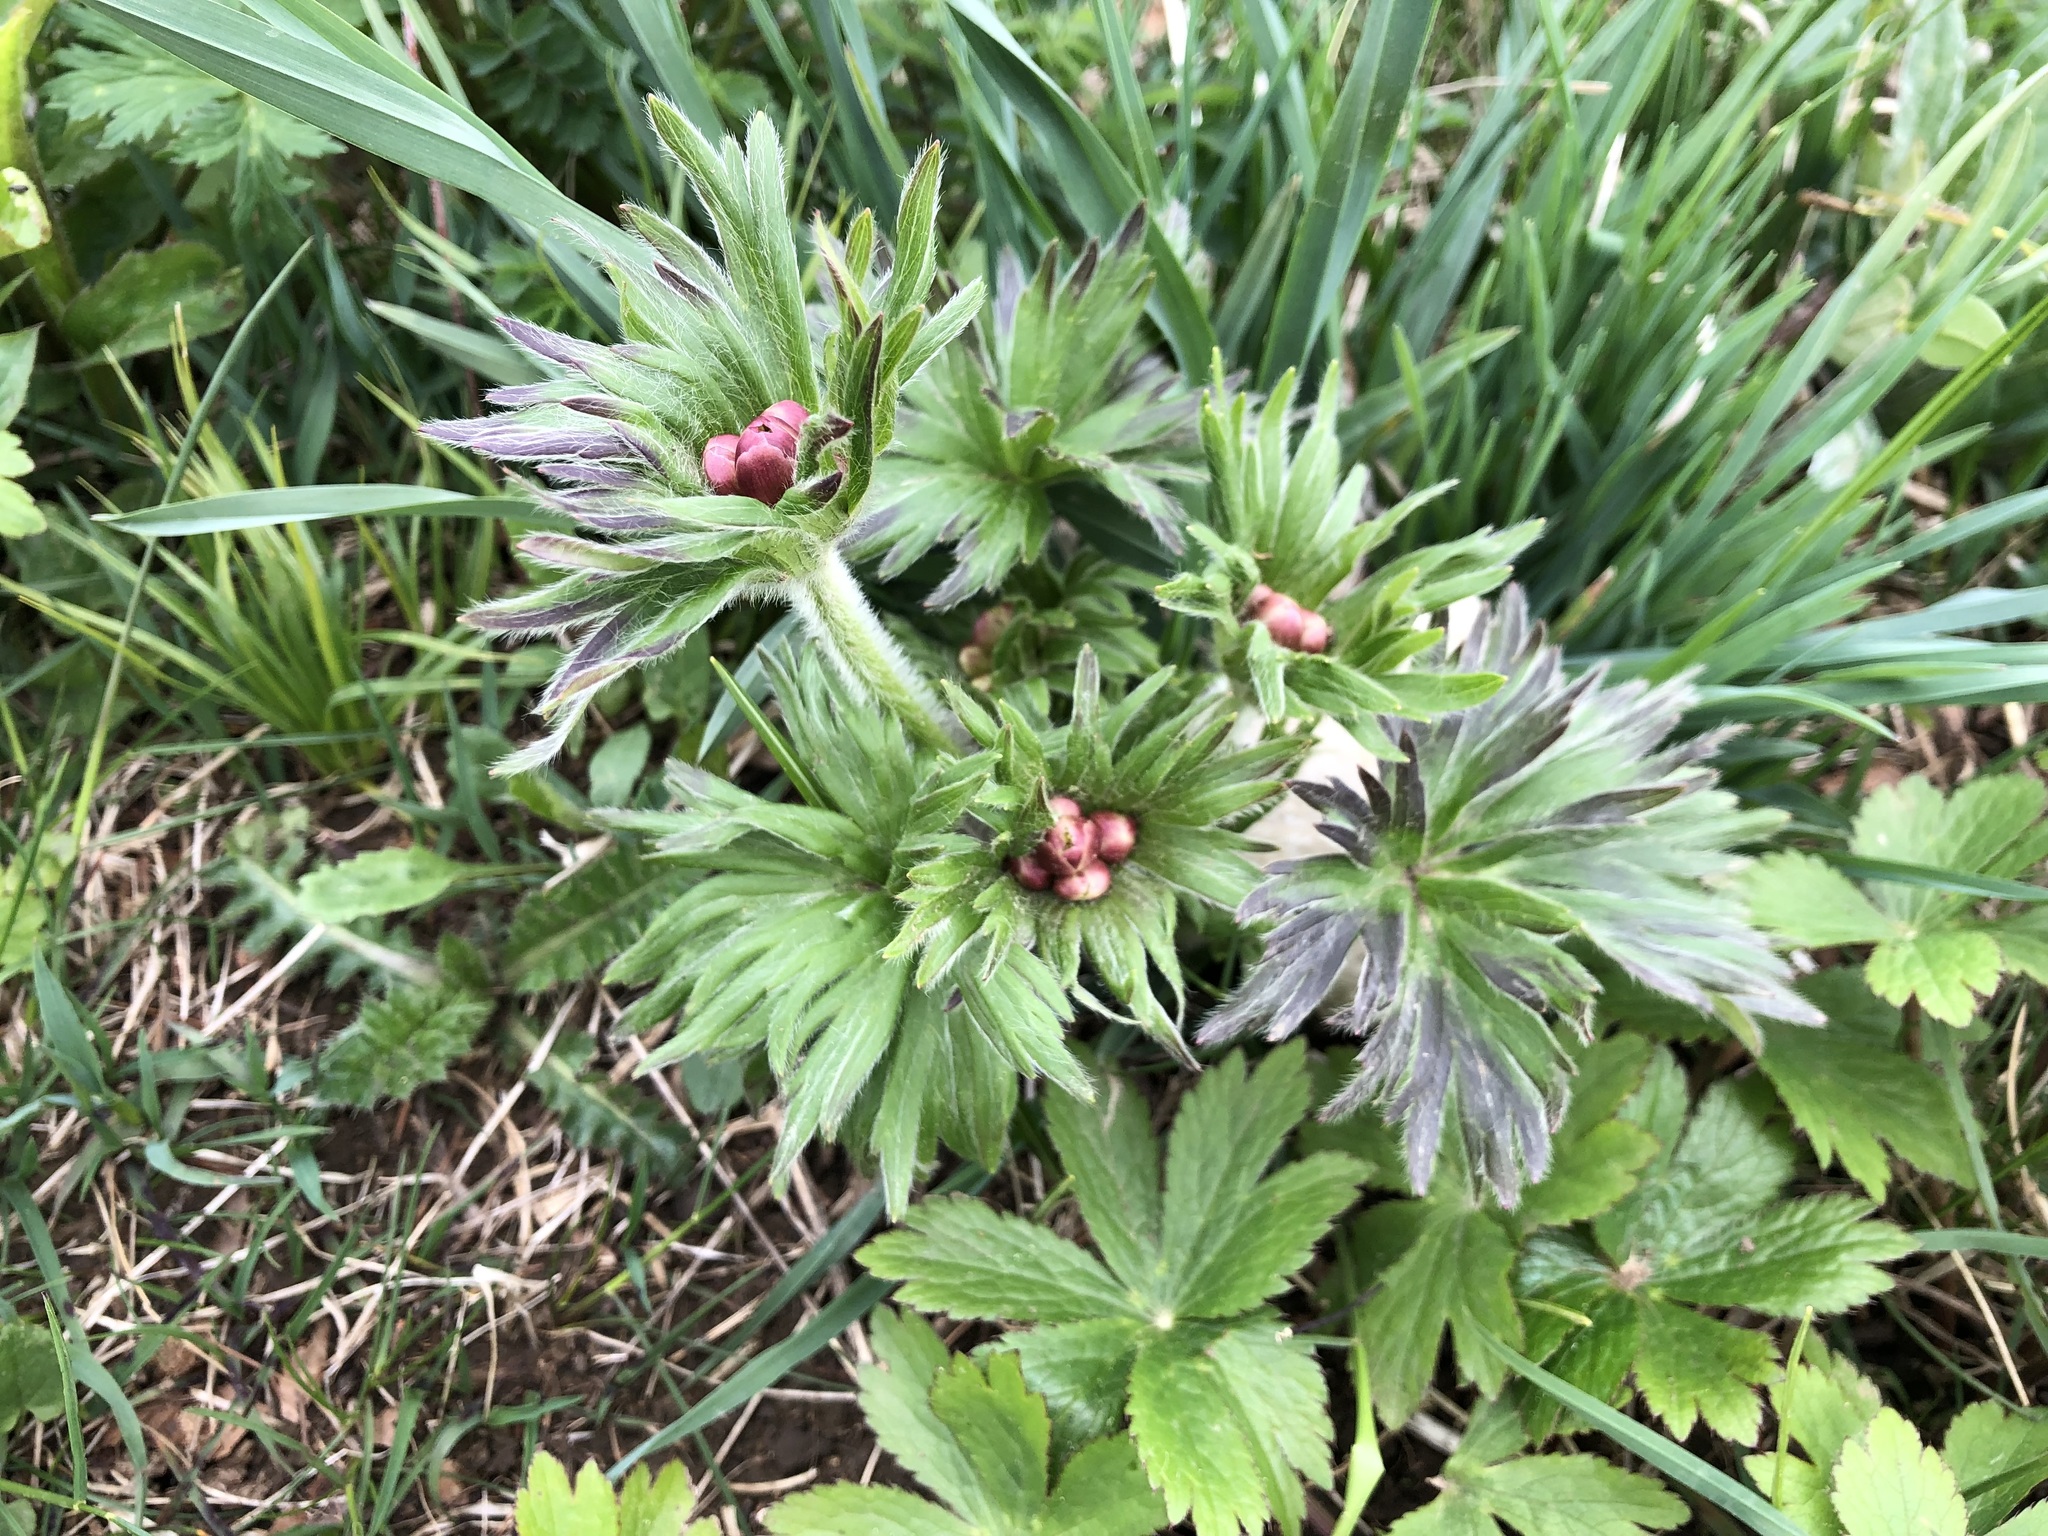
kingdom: Plantae
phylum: Tracheophyta
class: Magnoliopsida
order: Ranunculales
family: Ranunculaceae
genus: Anemonastrum
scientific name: Anemonastrum narcissiflorum
